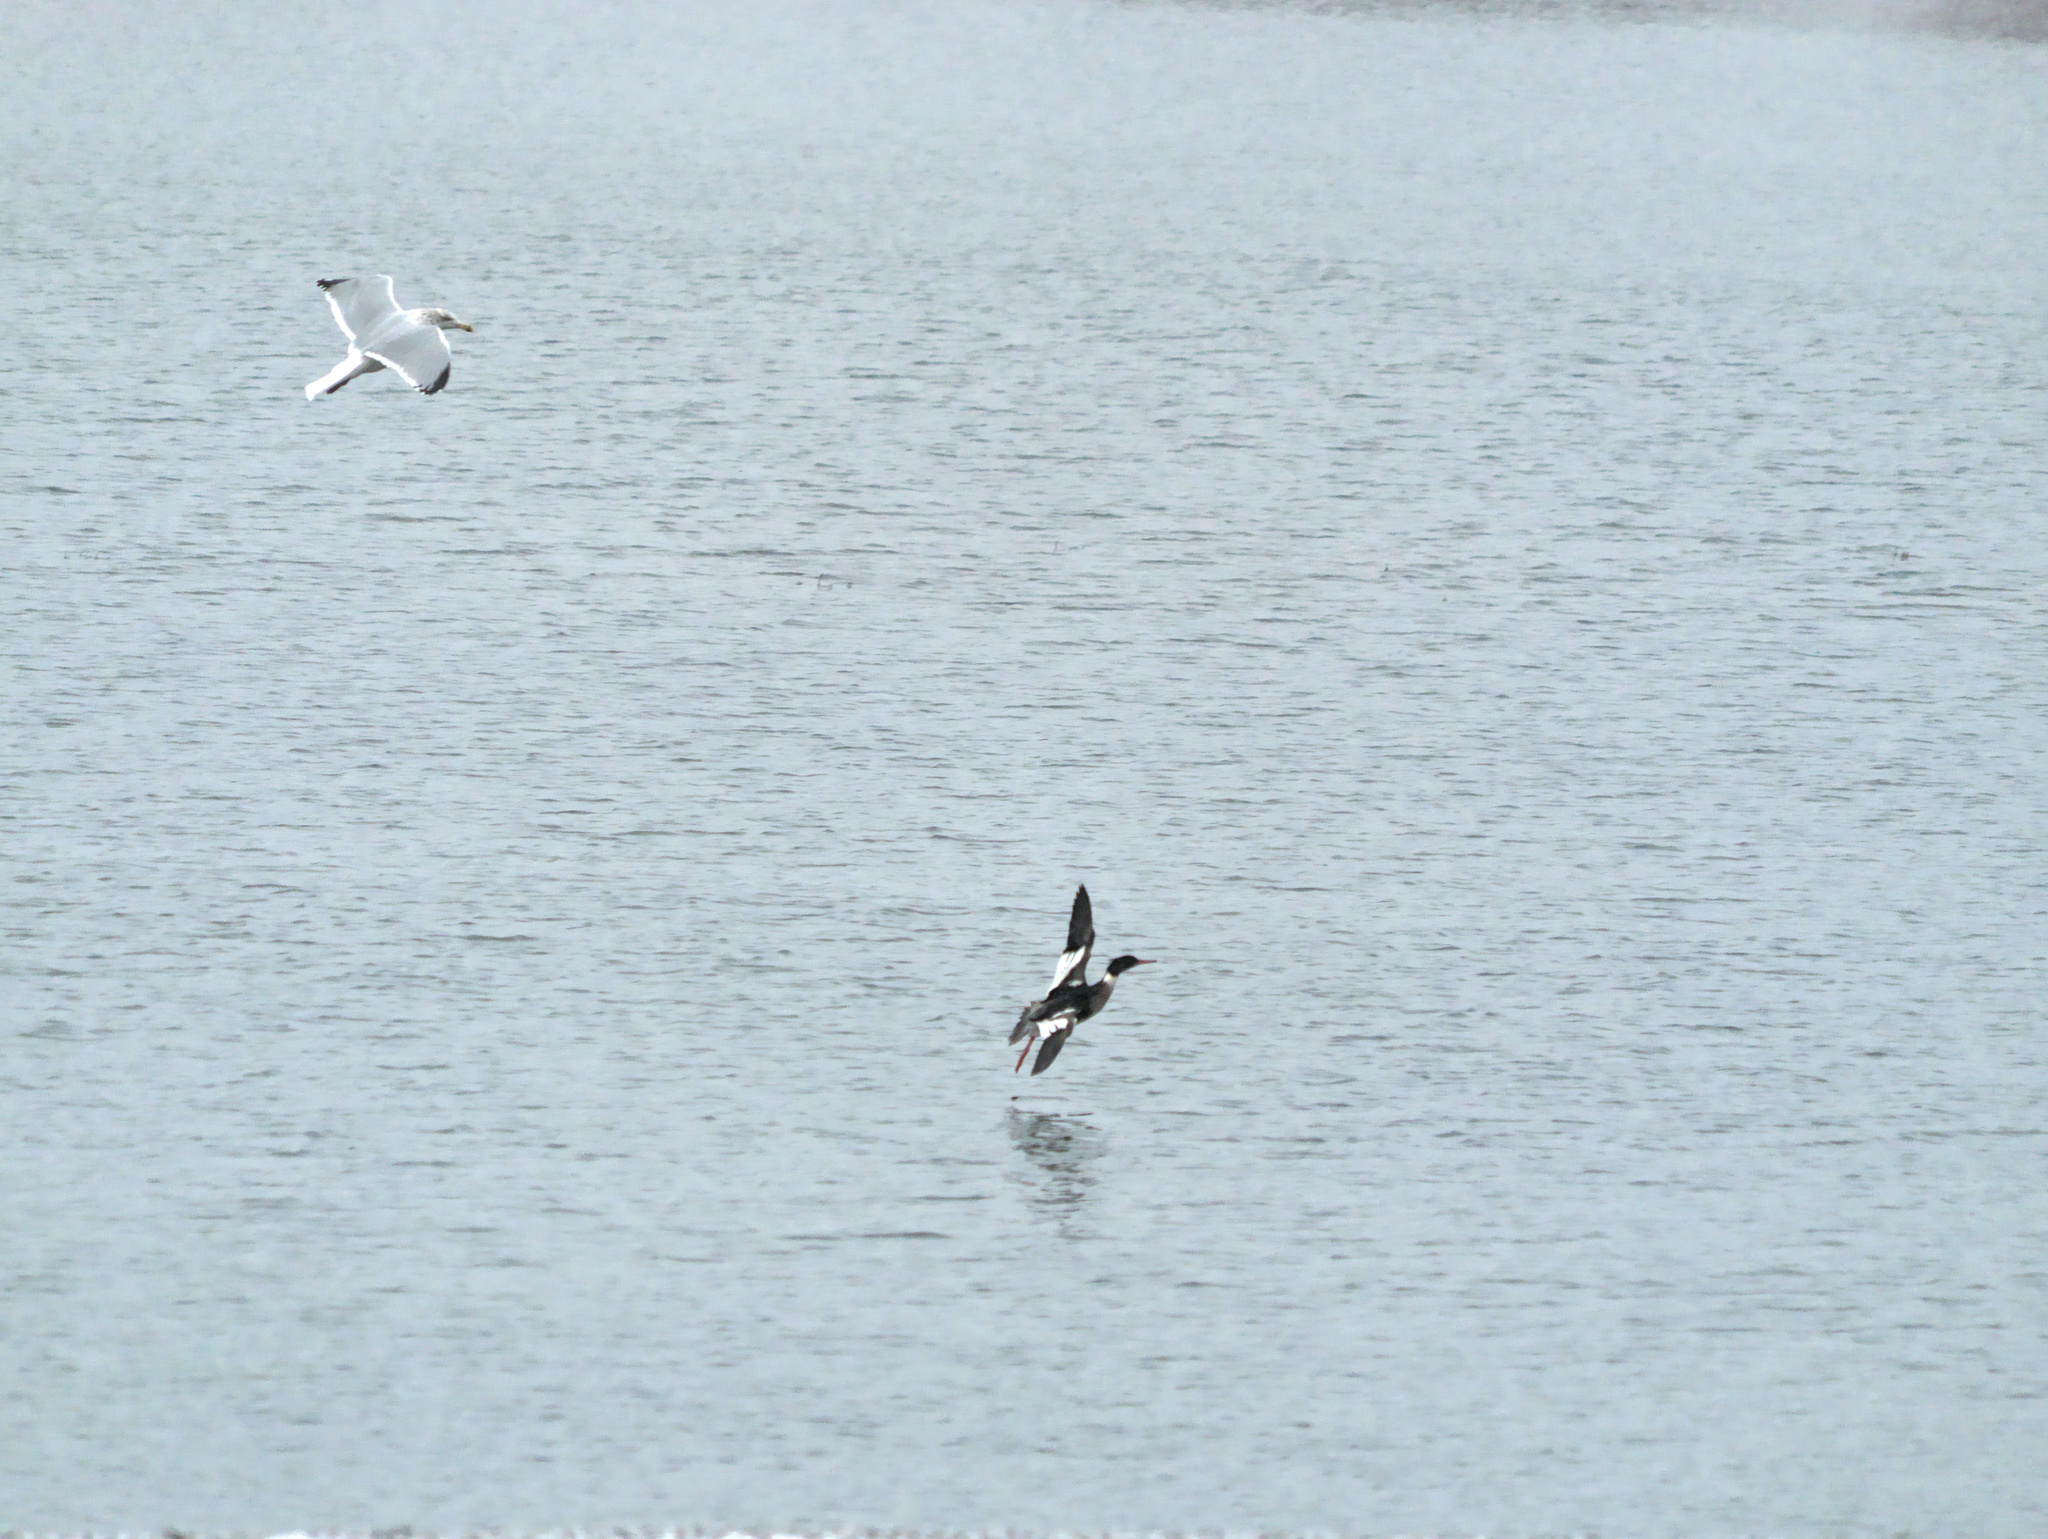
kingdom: Animalia
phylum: Chordata
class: Aves
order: Anseriformes
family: Anatidae
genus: Mergus
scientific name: Mergus serrator
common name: Red-breasted merganser
